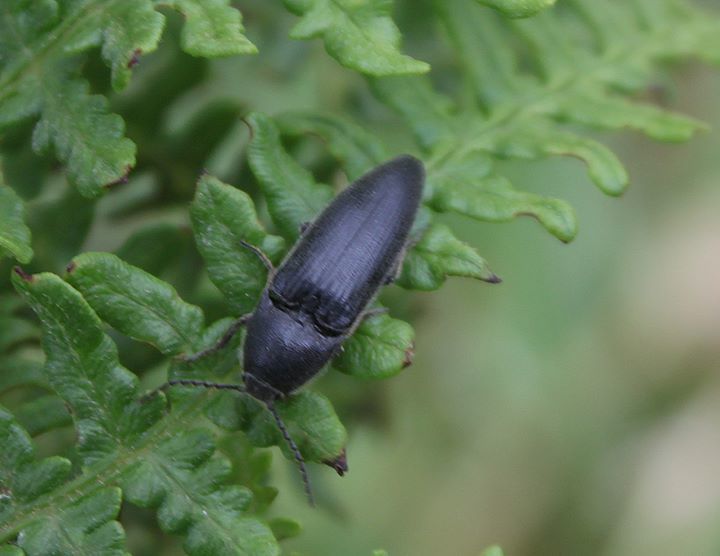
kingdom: Animalia
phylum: Arthropoda
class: Insecta
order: Coleoptera
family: Elateridae
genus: Melanotus
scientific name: Melanotus punctolineatus
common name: Sandwich click beetle
